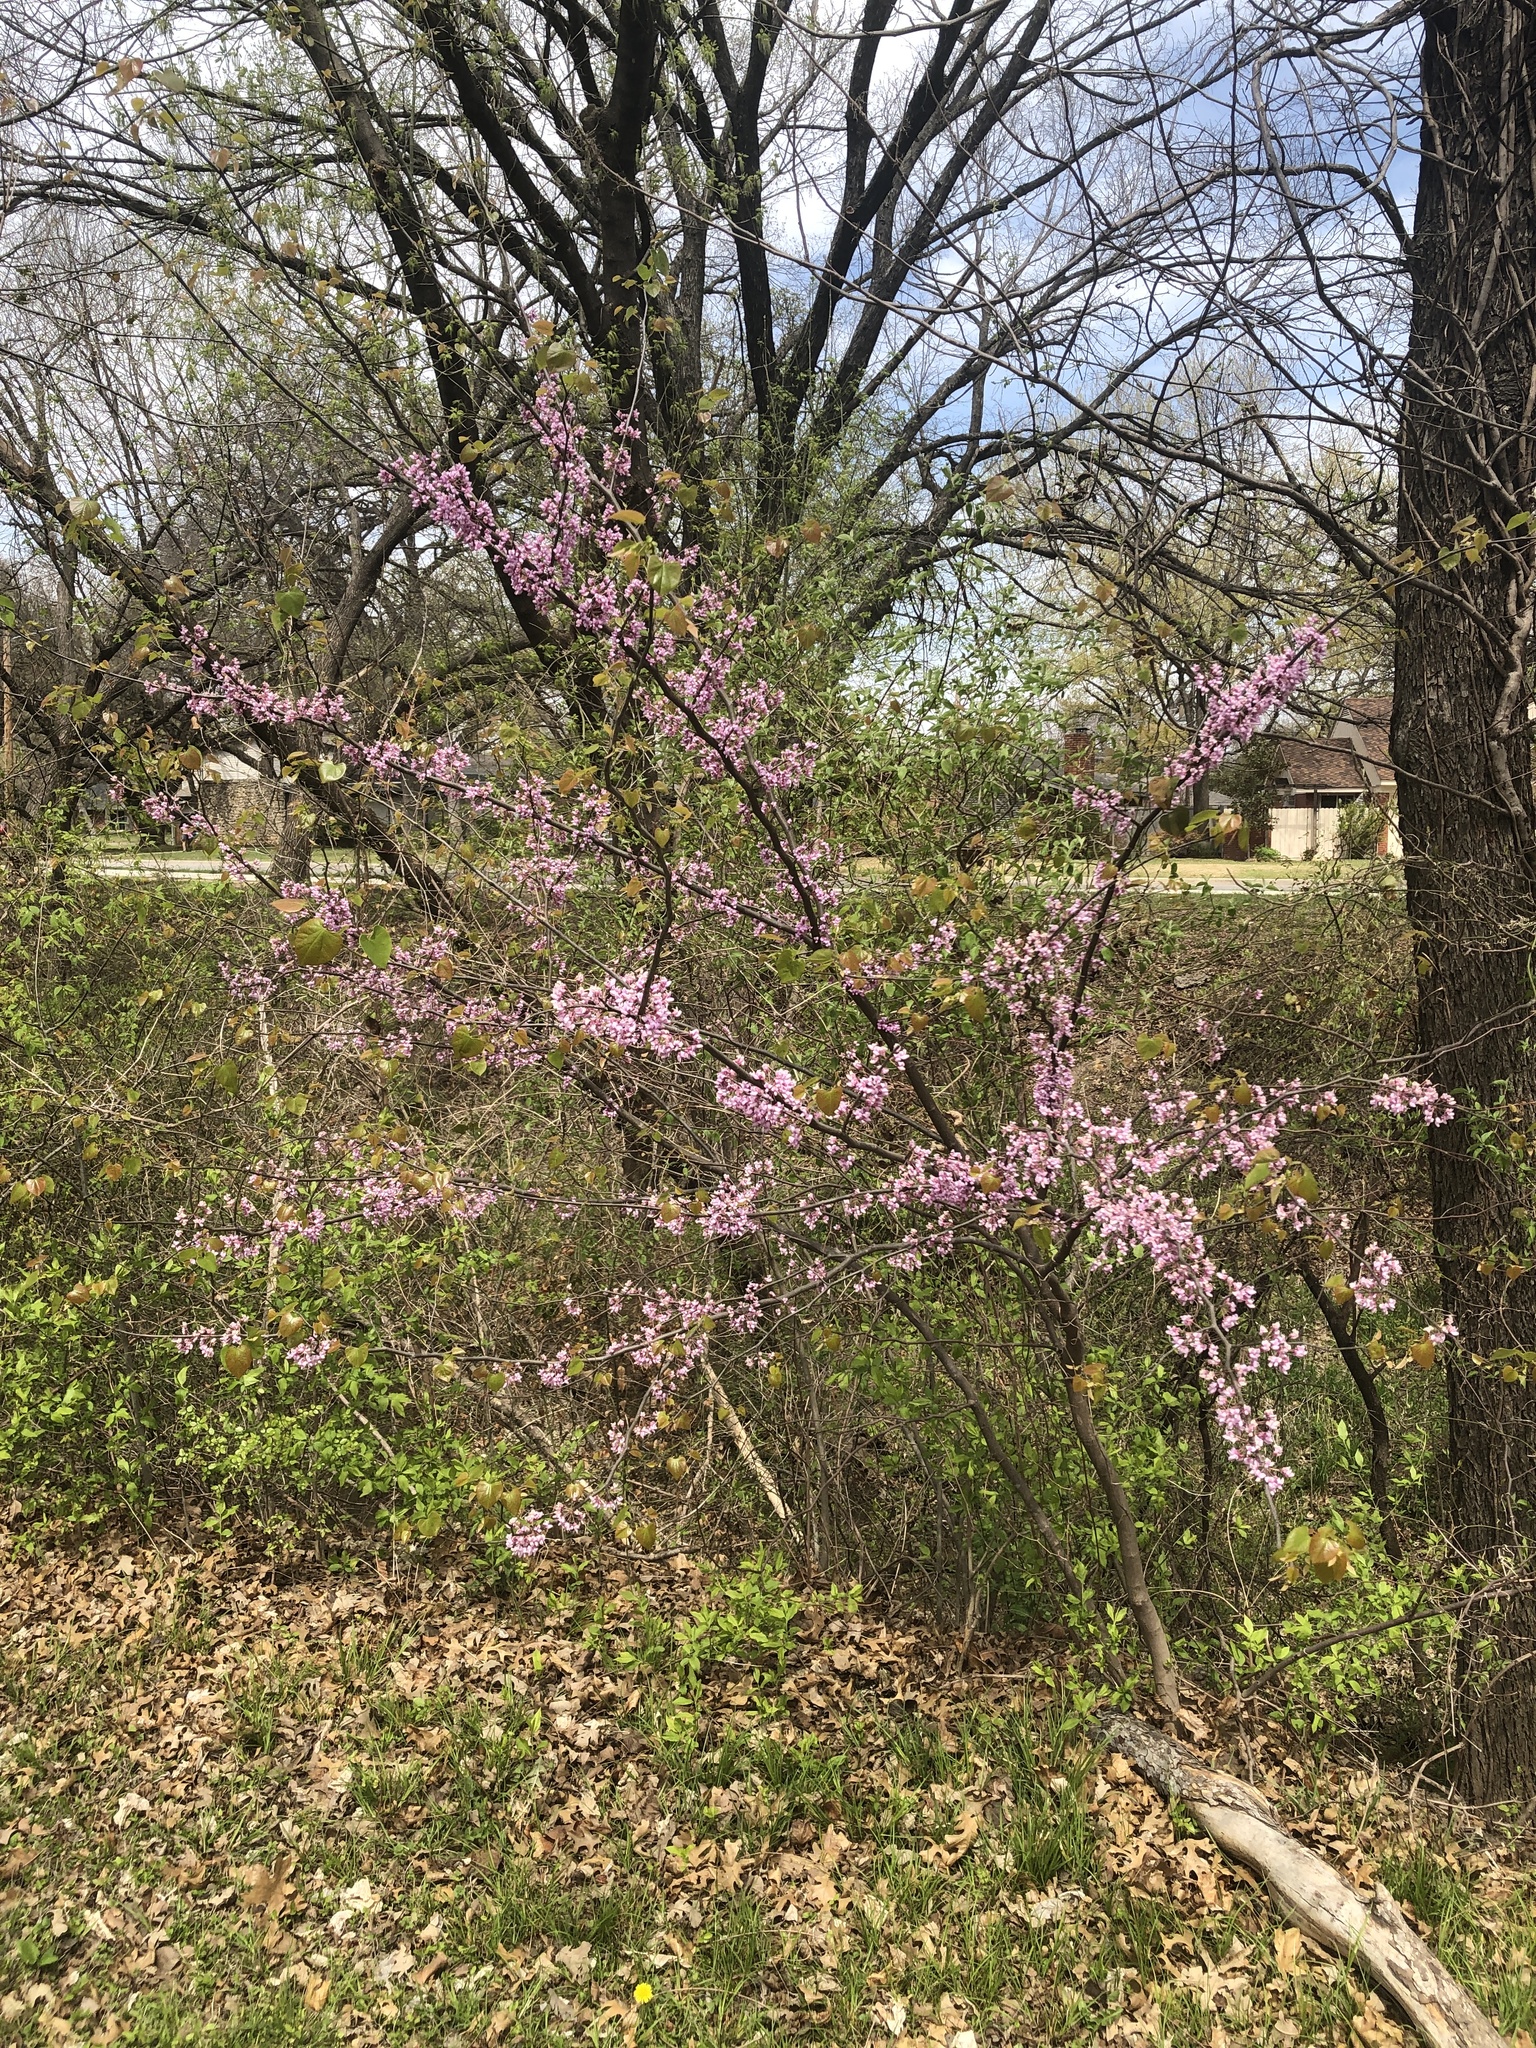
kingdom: Plantae
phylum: Tracheophyta
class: Magnoliopsida
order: Fabales
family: Fabaceae
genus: Cercis
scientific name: Cercis canadensis
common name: Eastern redbud
